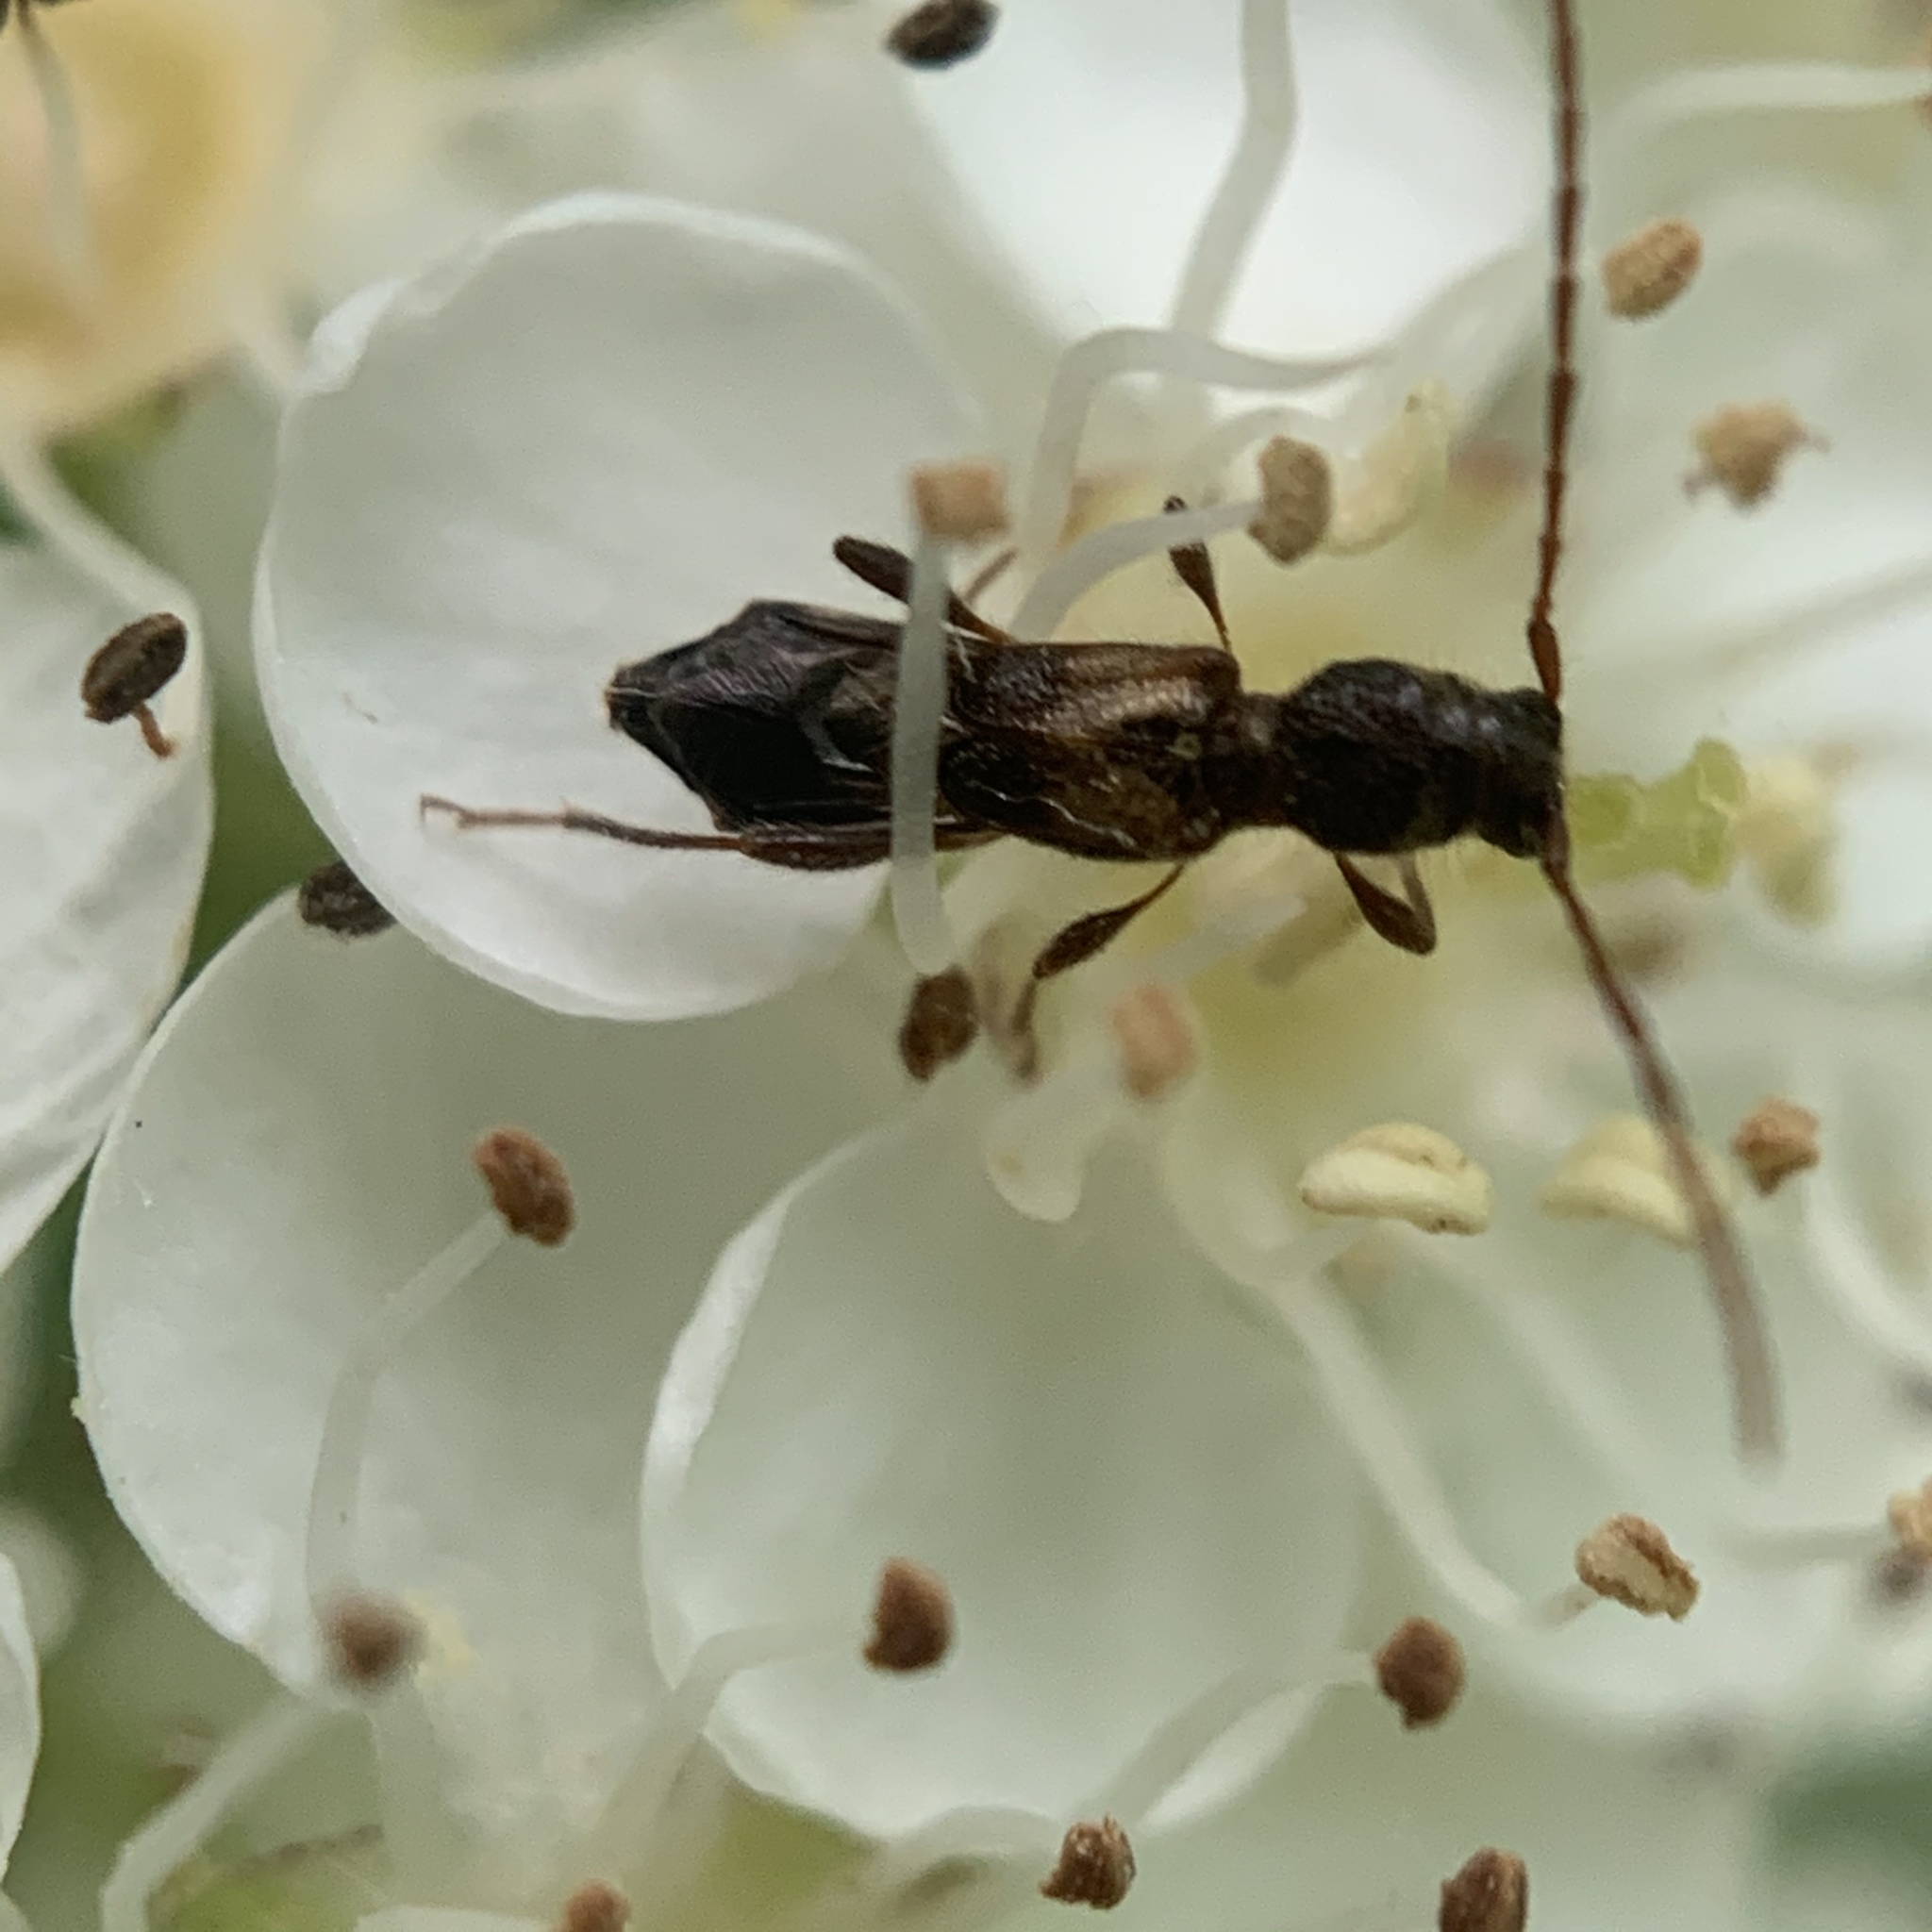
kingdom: Animalia
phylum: Arthropoda
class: Insecta
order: Coleoptera
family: Cerambycidae
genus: Molorchus
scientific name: Molorchus bimaculatus
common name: Bimaculate longhorn beetle
